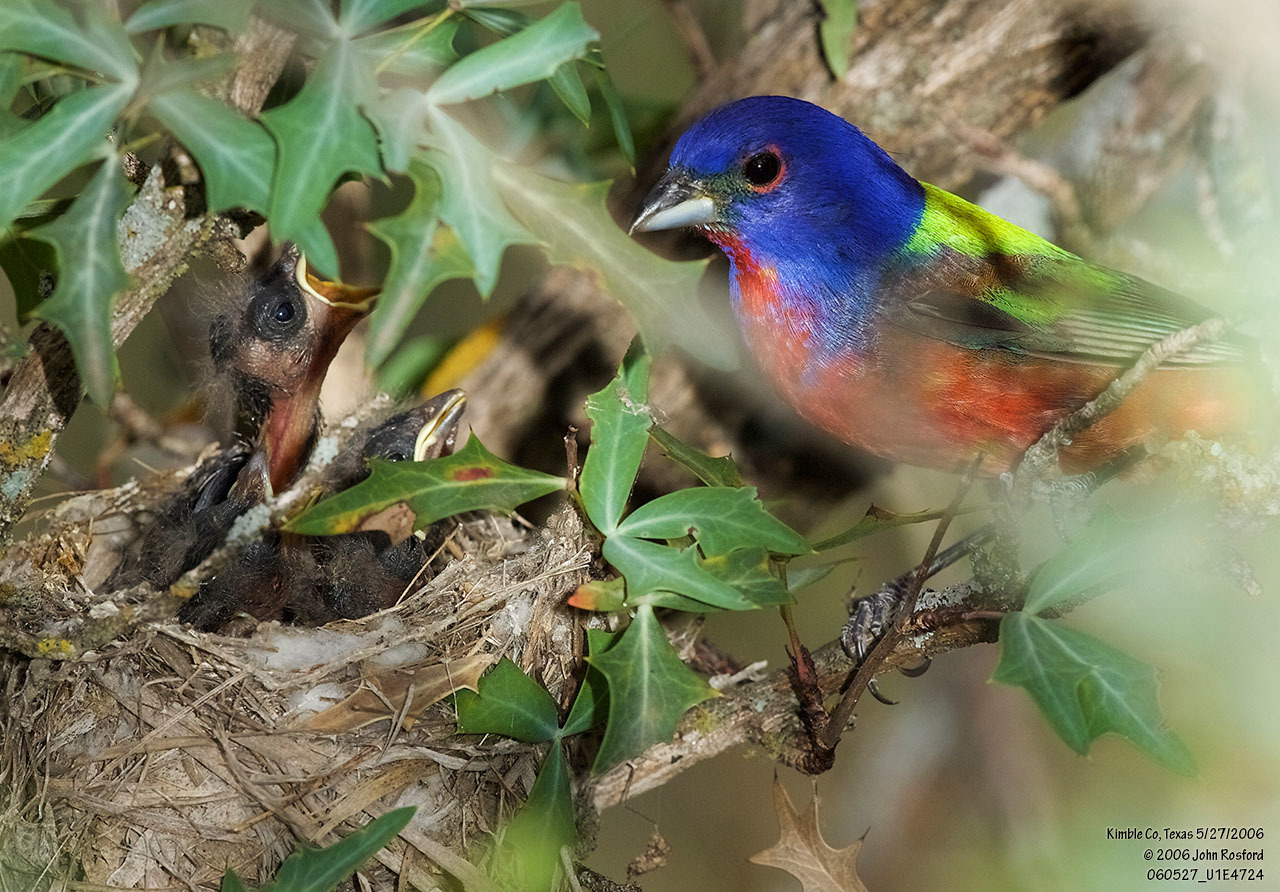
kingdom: Animalia
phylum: Chordata
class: Aves
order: Passeriformes
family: Cardinalidae
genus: Passerina
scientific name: Passerina ciris
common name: Painted bunting
